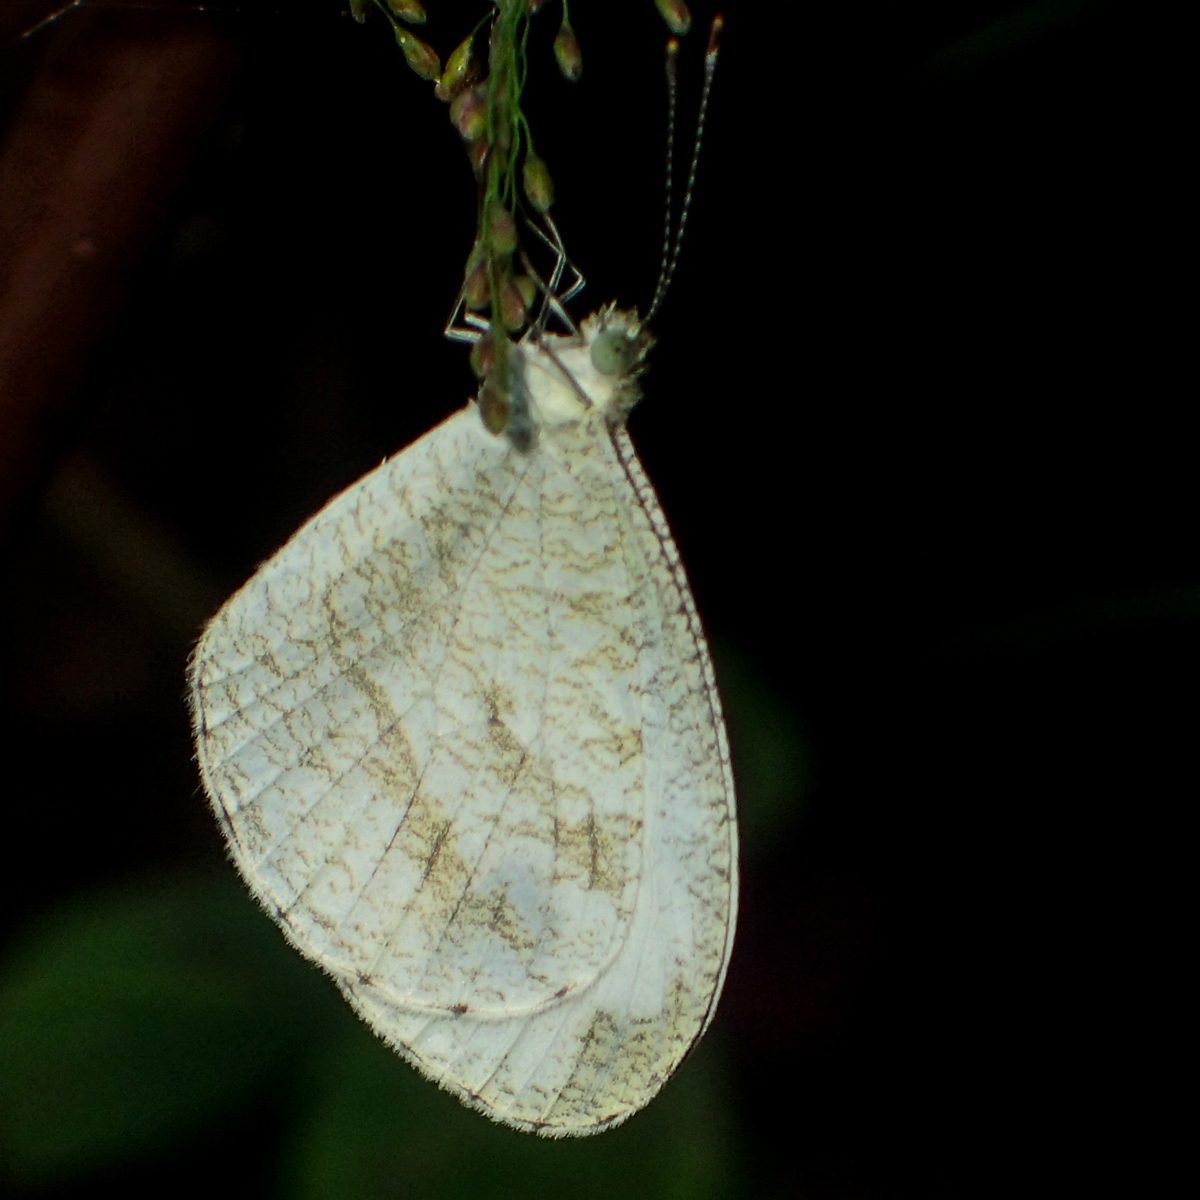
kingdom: Animalia
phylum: Arthropoda
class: Insecta
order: Lepidoptera
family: Pieridae
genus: Leptosia
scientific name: Leptosia nina
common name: Psyche
